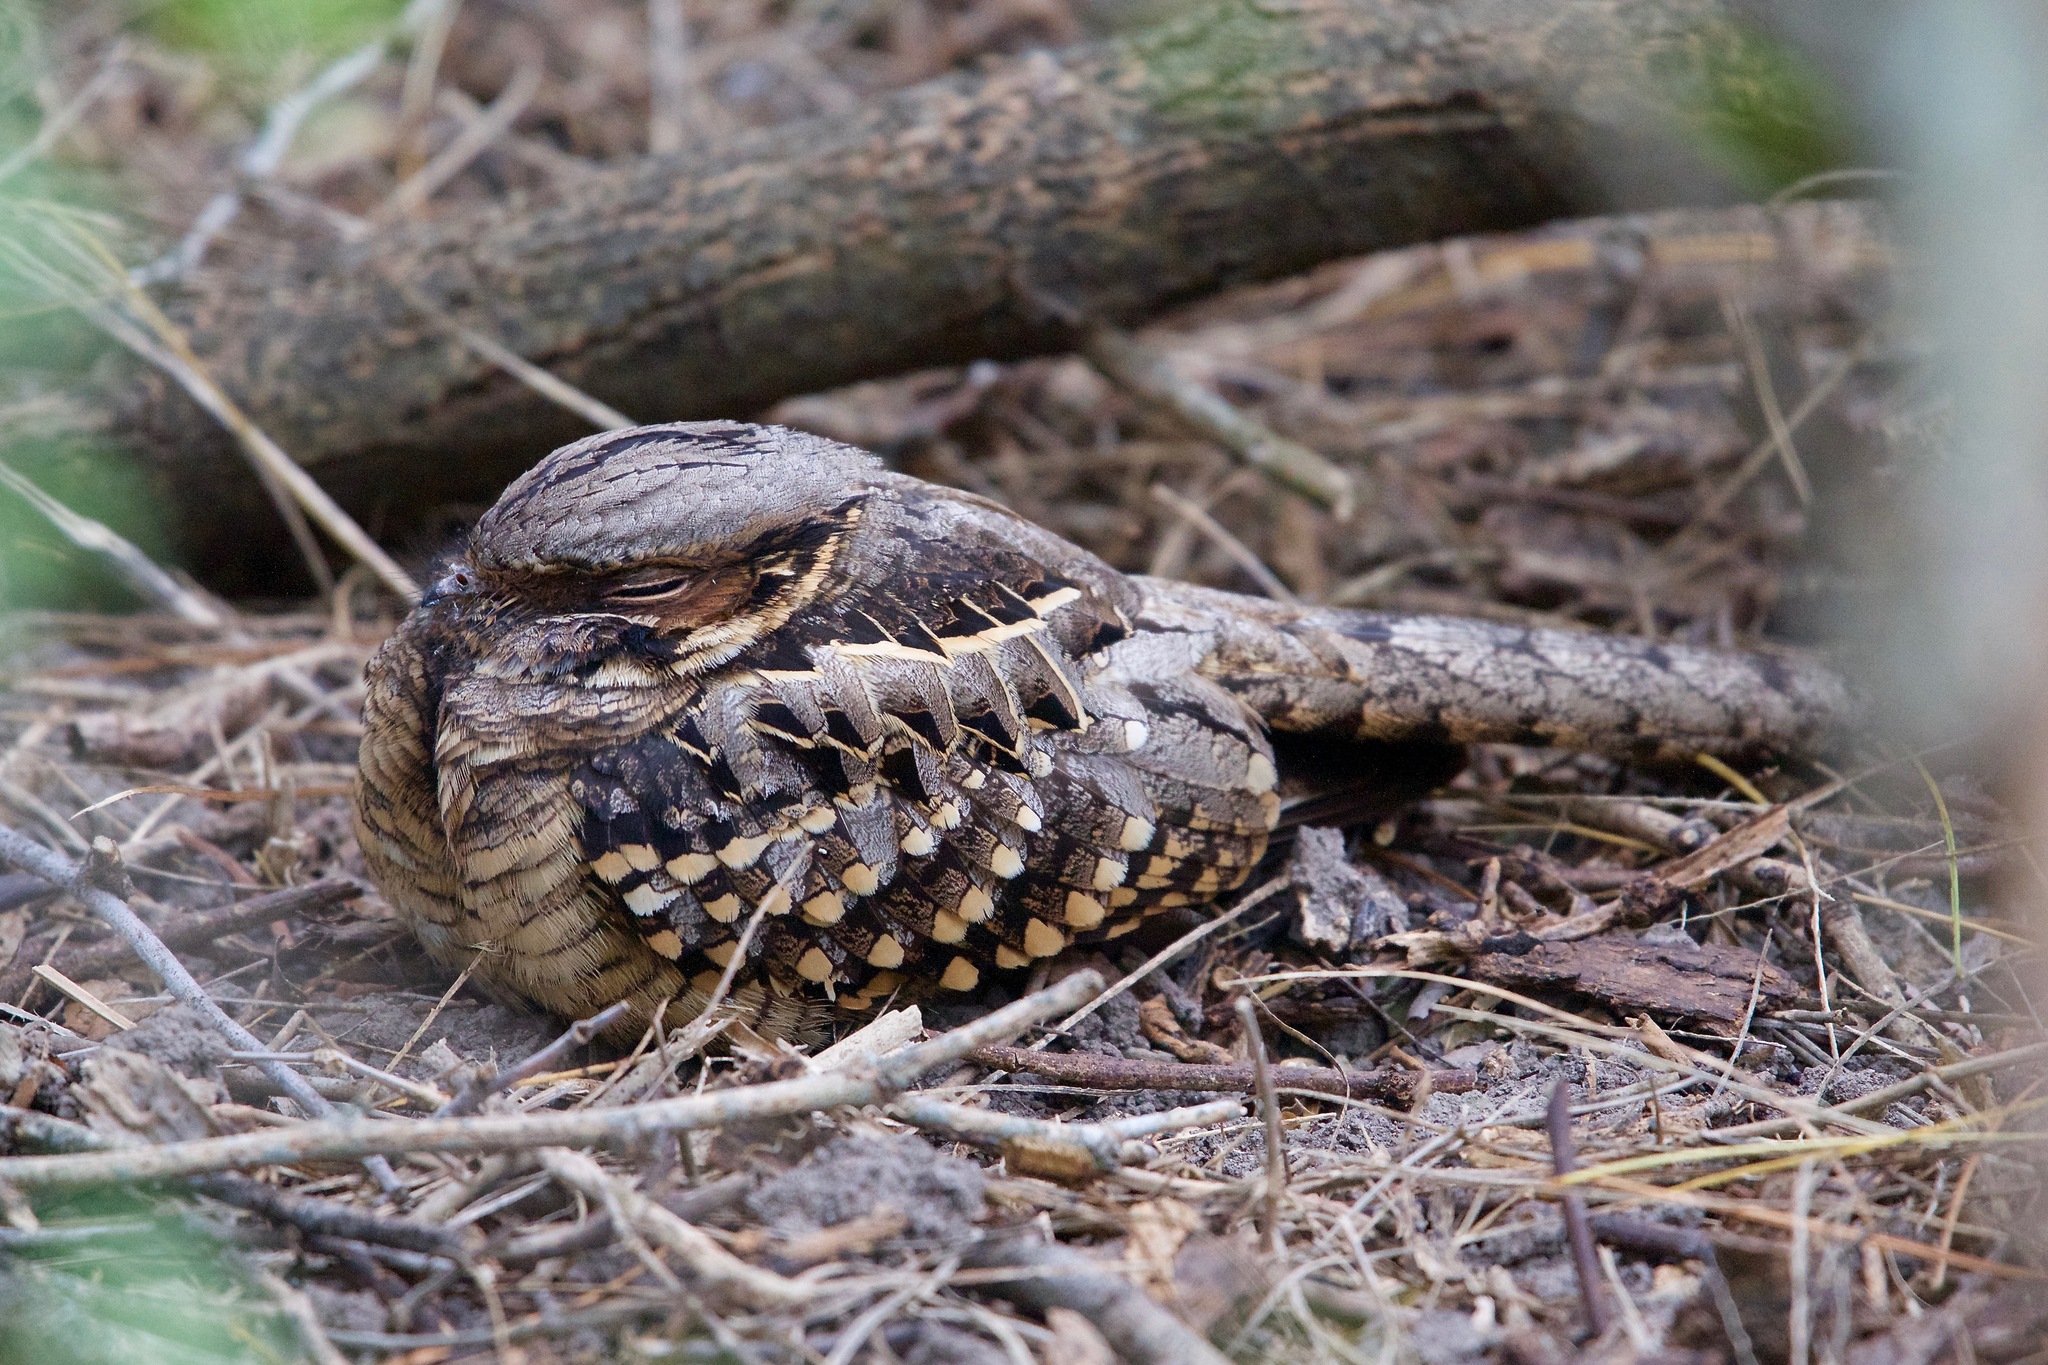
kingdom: Animalia
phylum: Chordata
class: Aves
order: Caprimulgiformes
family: Caprimulgidae
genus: Nyctidromus
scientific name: Nyctidromus albicollis
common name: Pauraque
